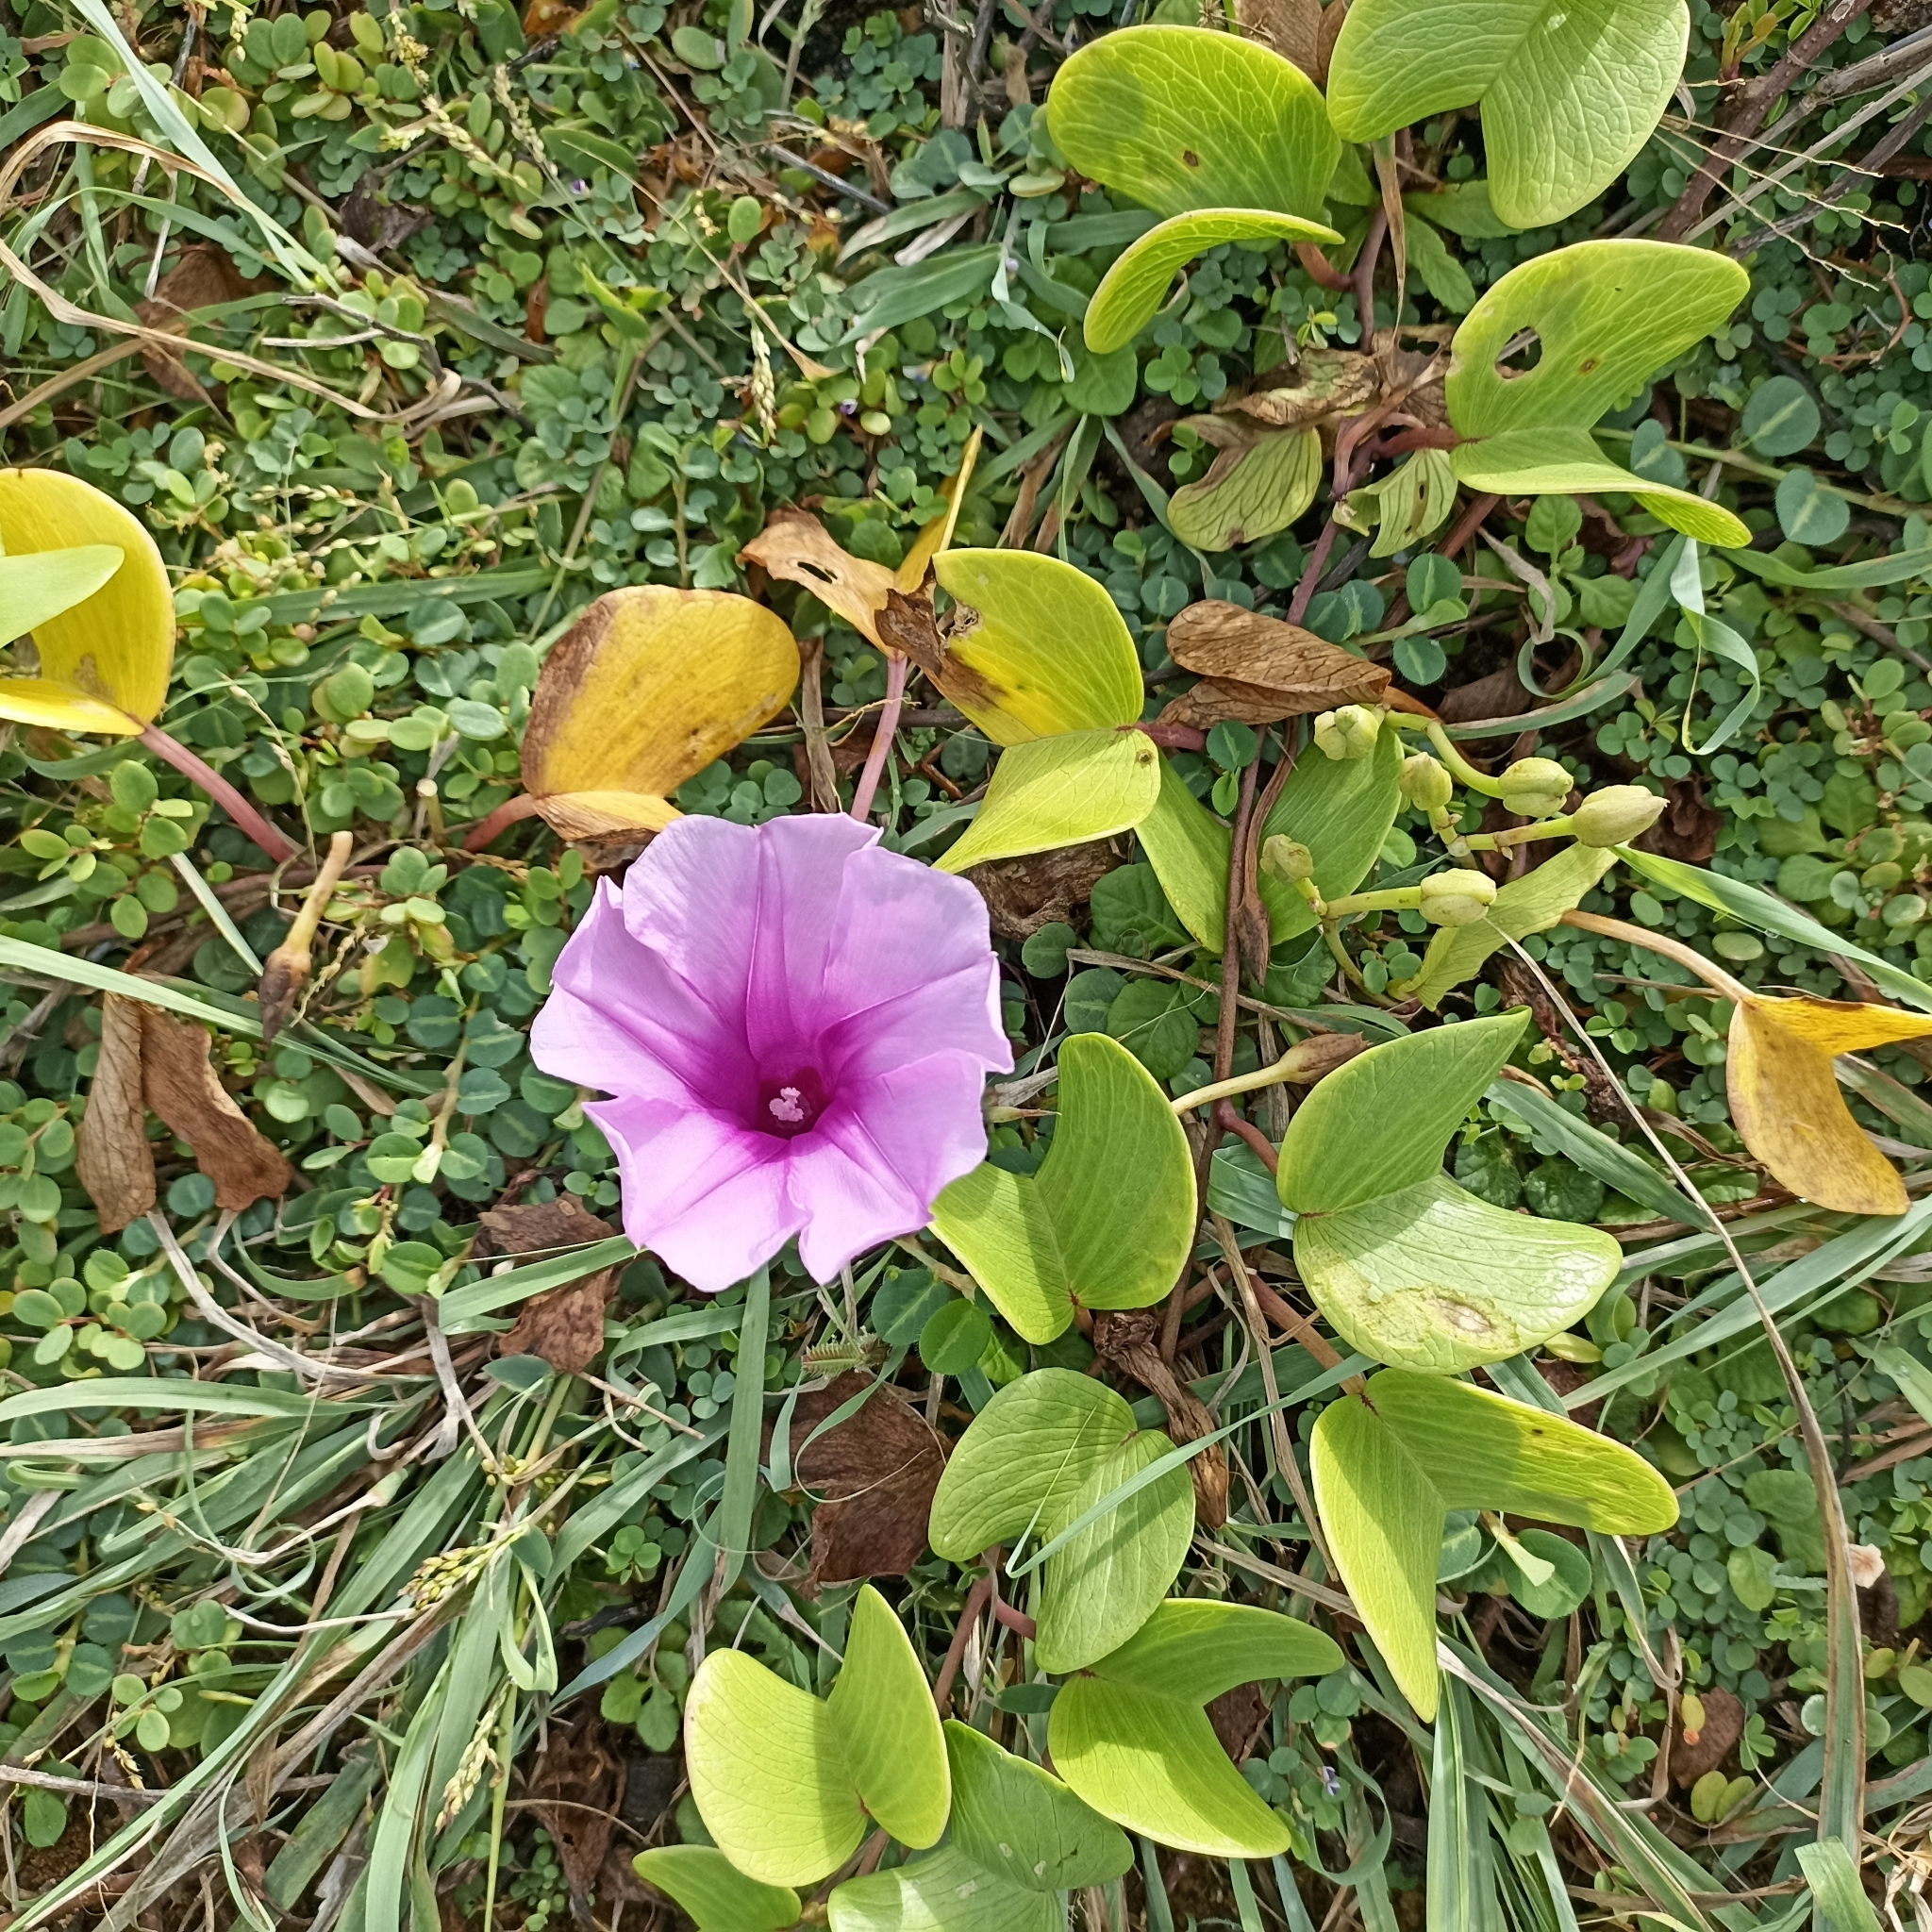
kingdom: Plantae
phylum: Tracheophyta
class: Magnoliopsida
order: Solanales
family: Convolvulaceae
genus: Ipomoea
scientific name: Ipomoea pes-caprae
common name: Beach morning glory
